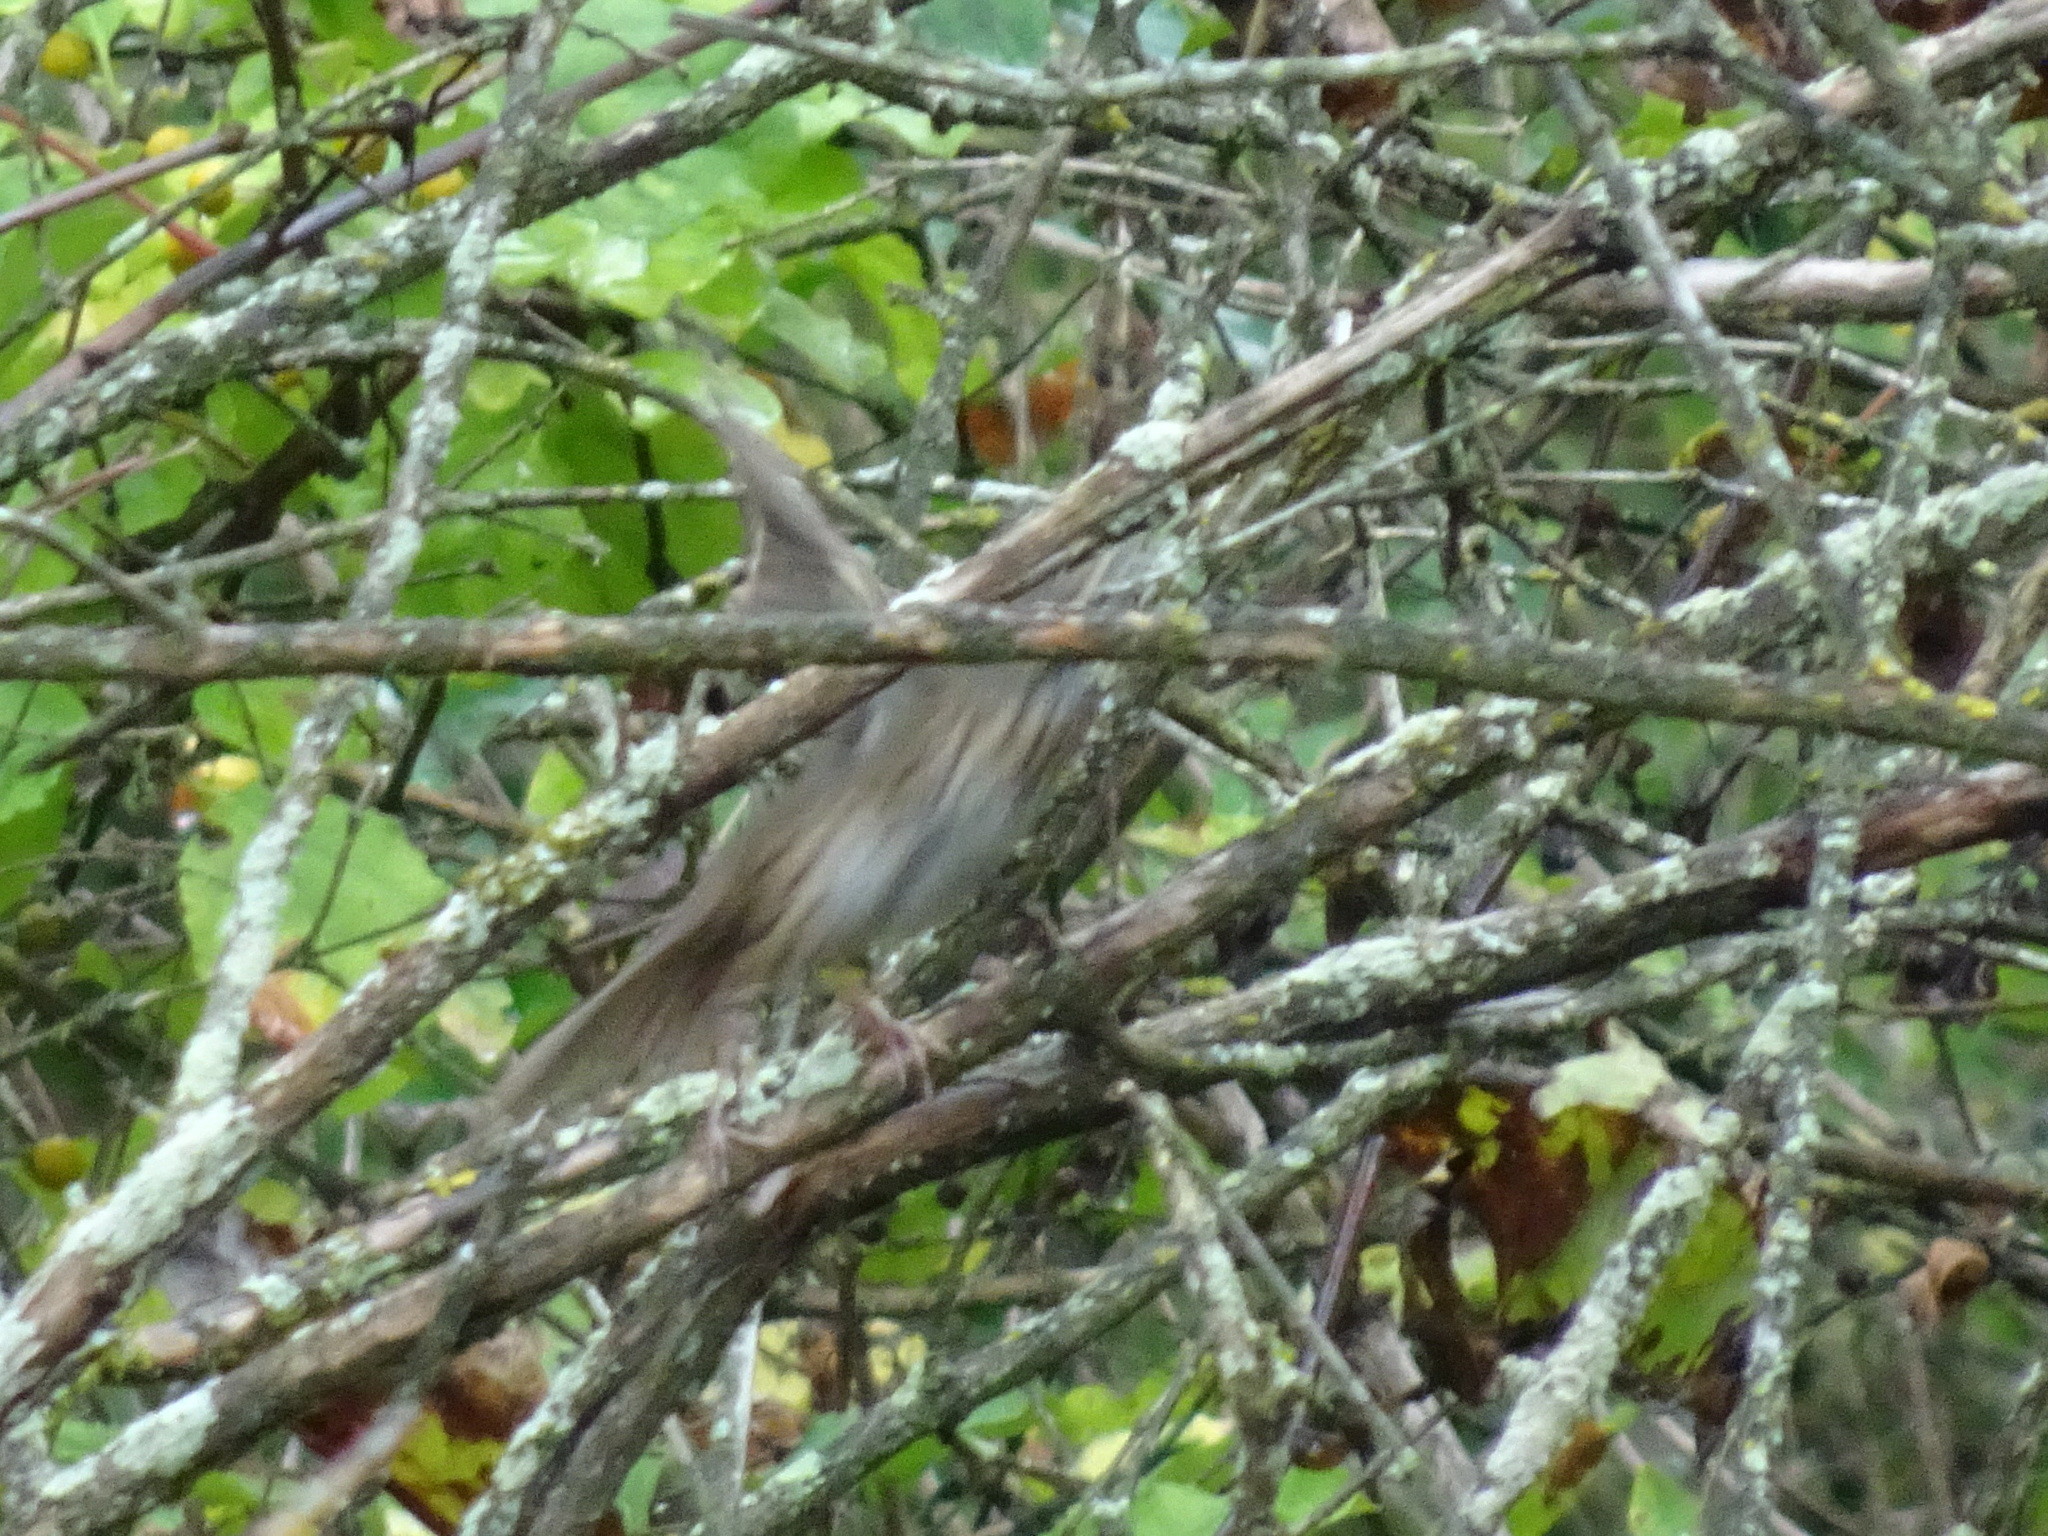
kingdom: Animalia
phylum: Chordata
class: Aves
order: Passeriformes
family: Passerellidae
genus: Melospiza
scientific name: Melospiza lincolnii
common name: Lincoln's sparrow
